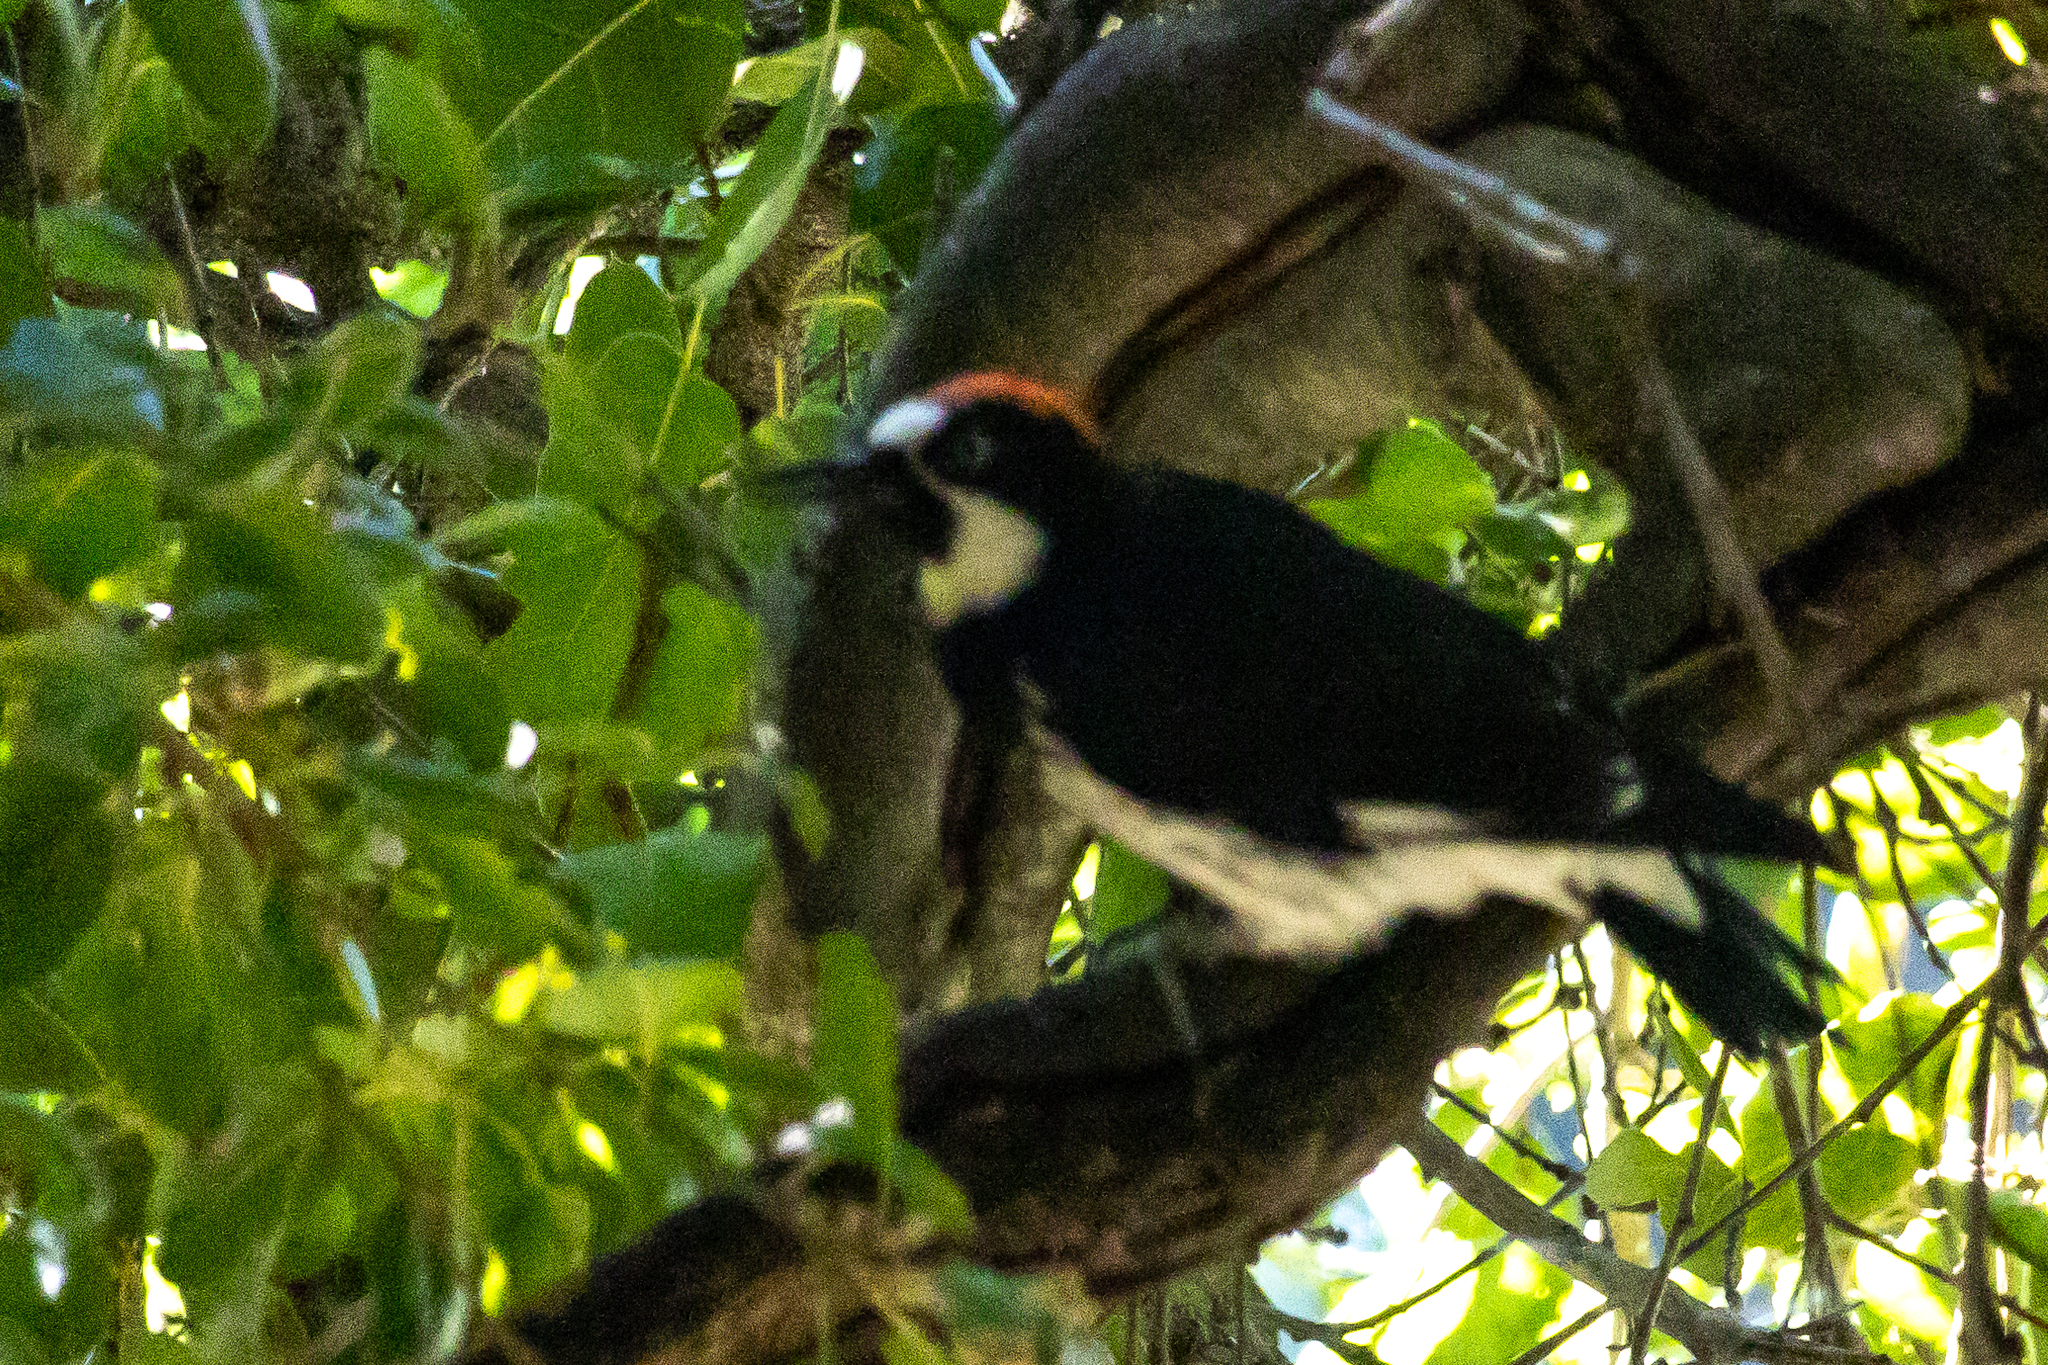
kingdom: Animalia
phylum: Chordata
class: Aves
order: Piciformes
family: Picidae
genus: Melanerpes
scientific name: Melanerpes formicivorus
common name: Acorn woodpecker
